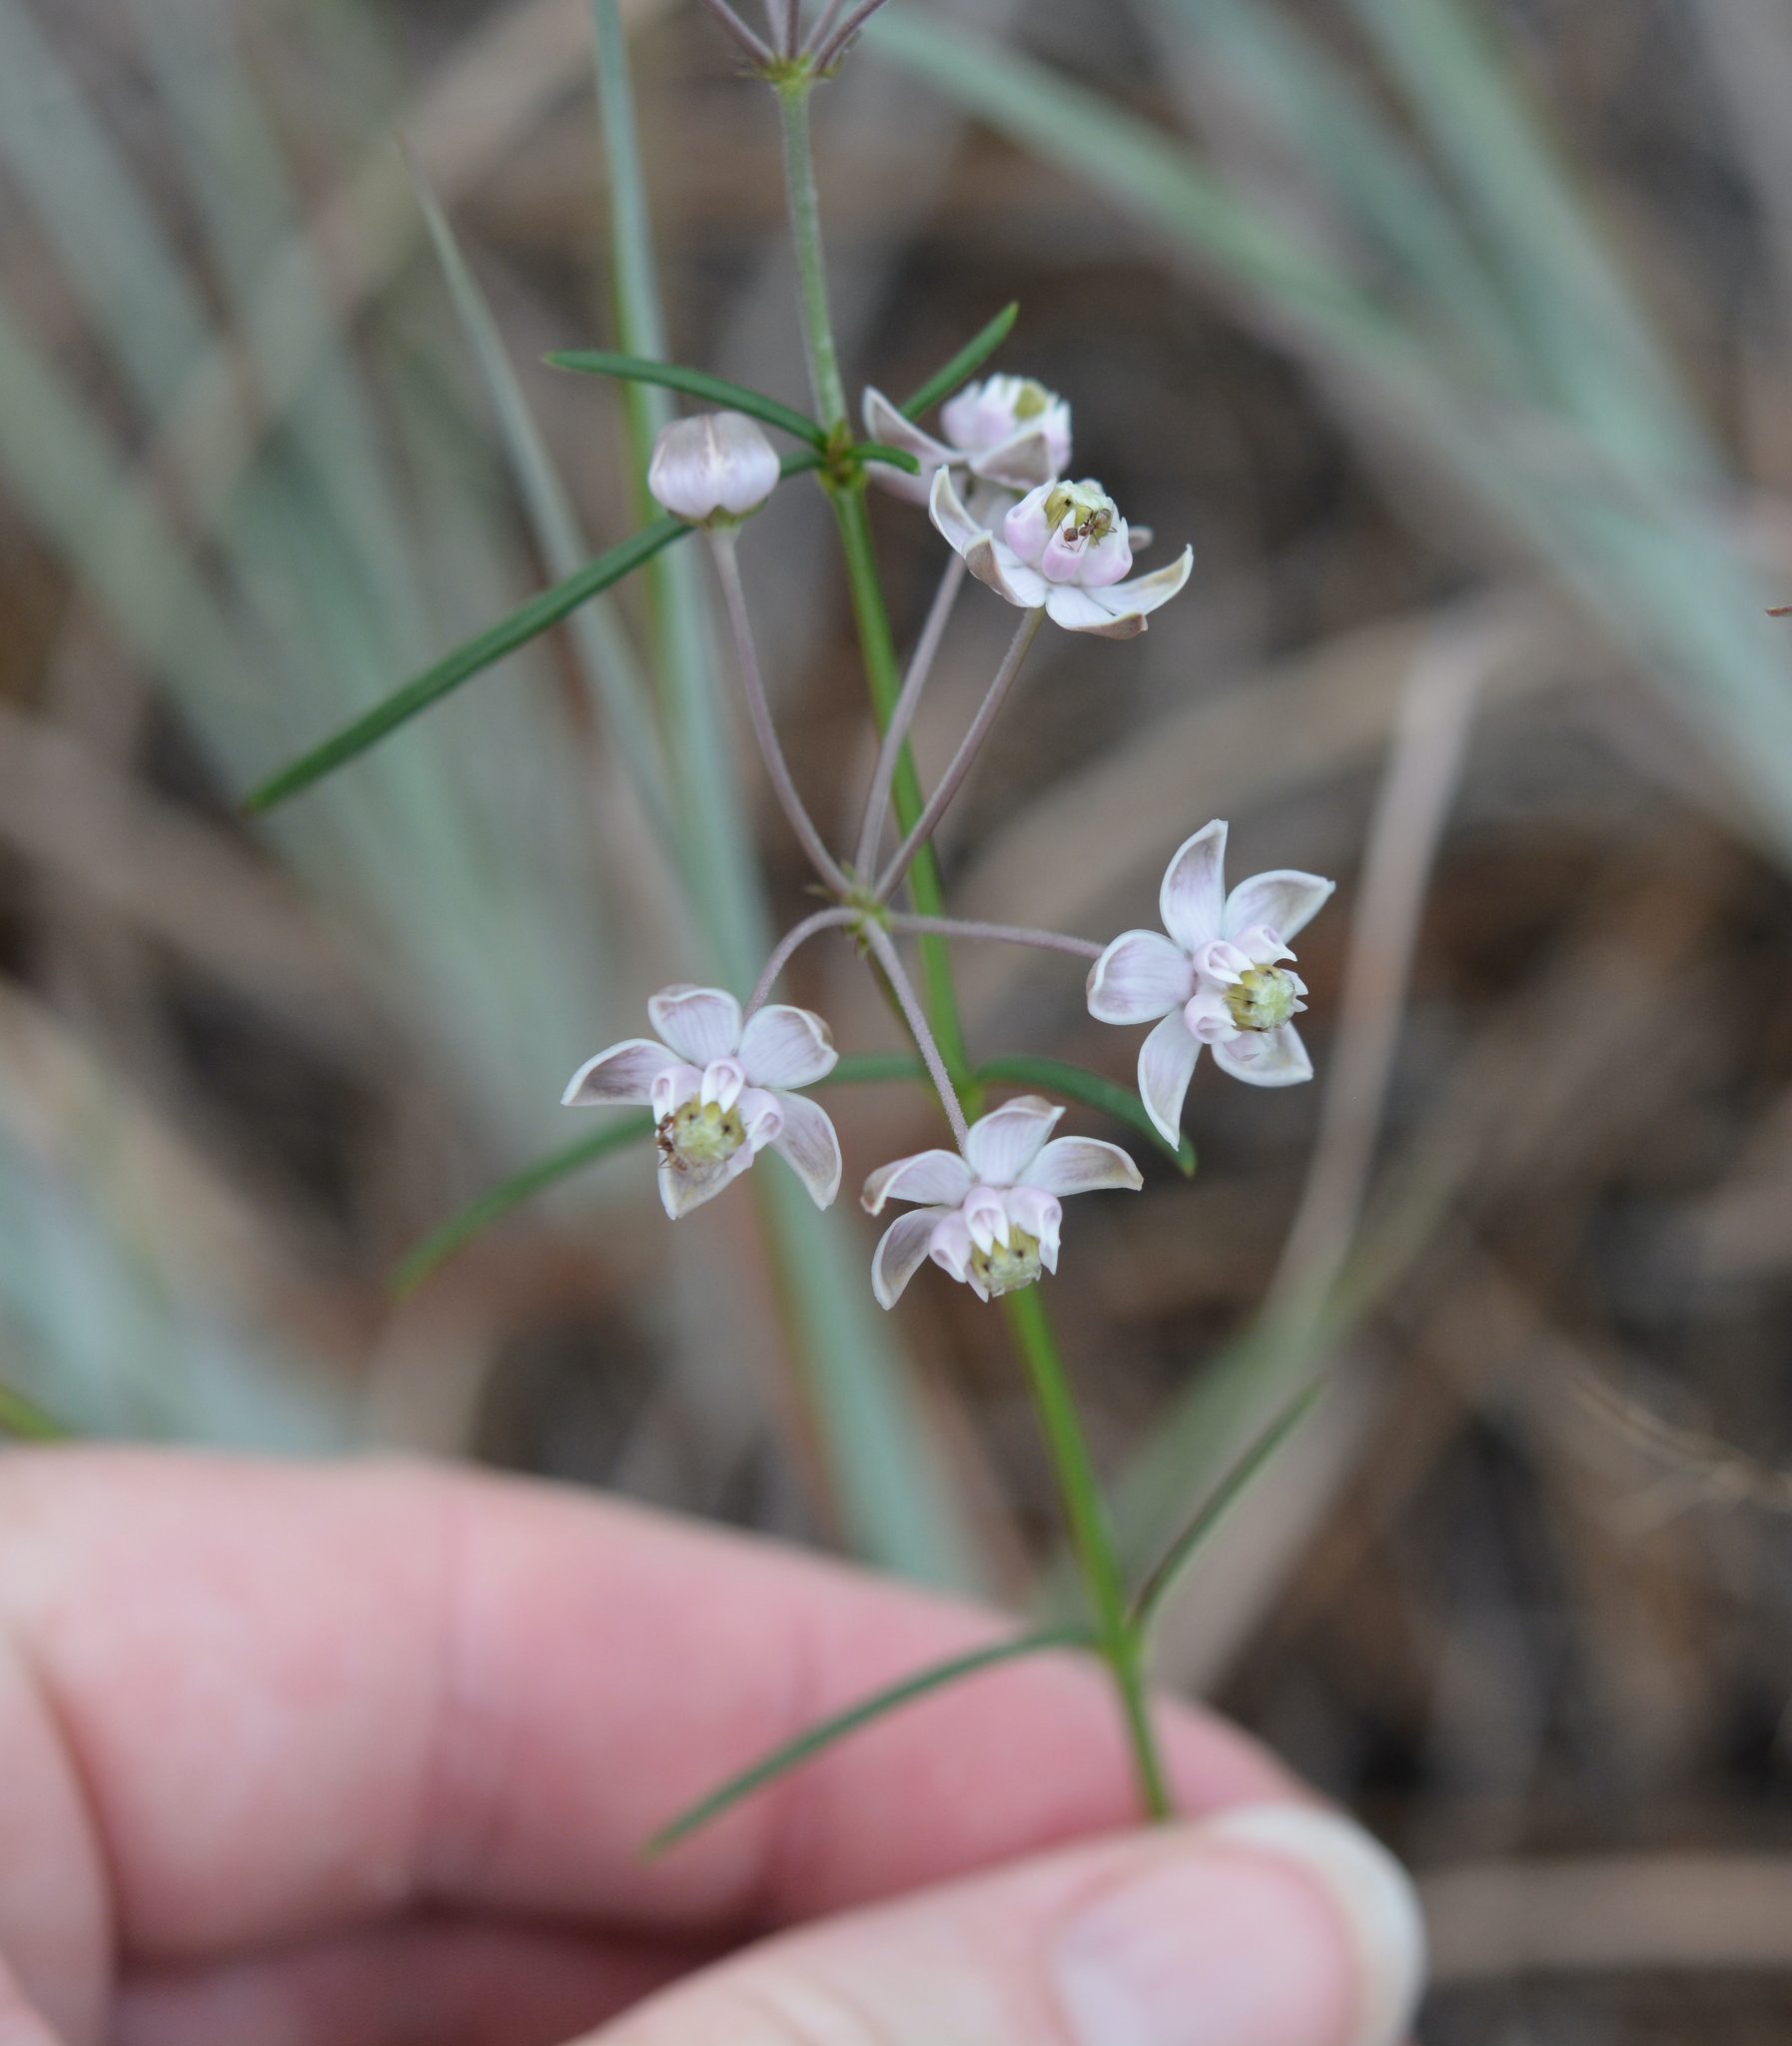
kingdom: Plantae
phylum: Tracheophyta
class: Magnoliopsida
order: Gentianales
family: Apocynaceae
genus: Asclepias
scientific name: Asclepias cinerea
